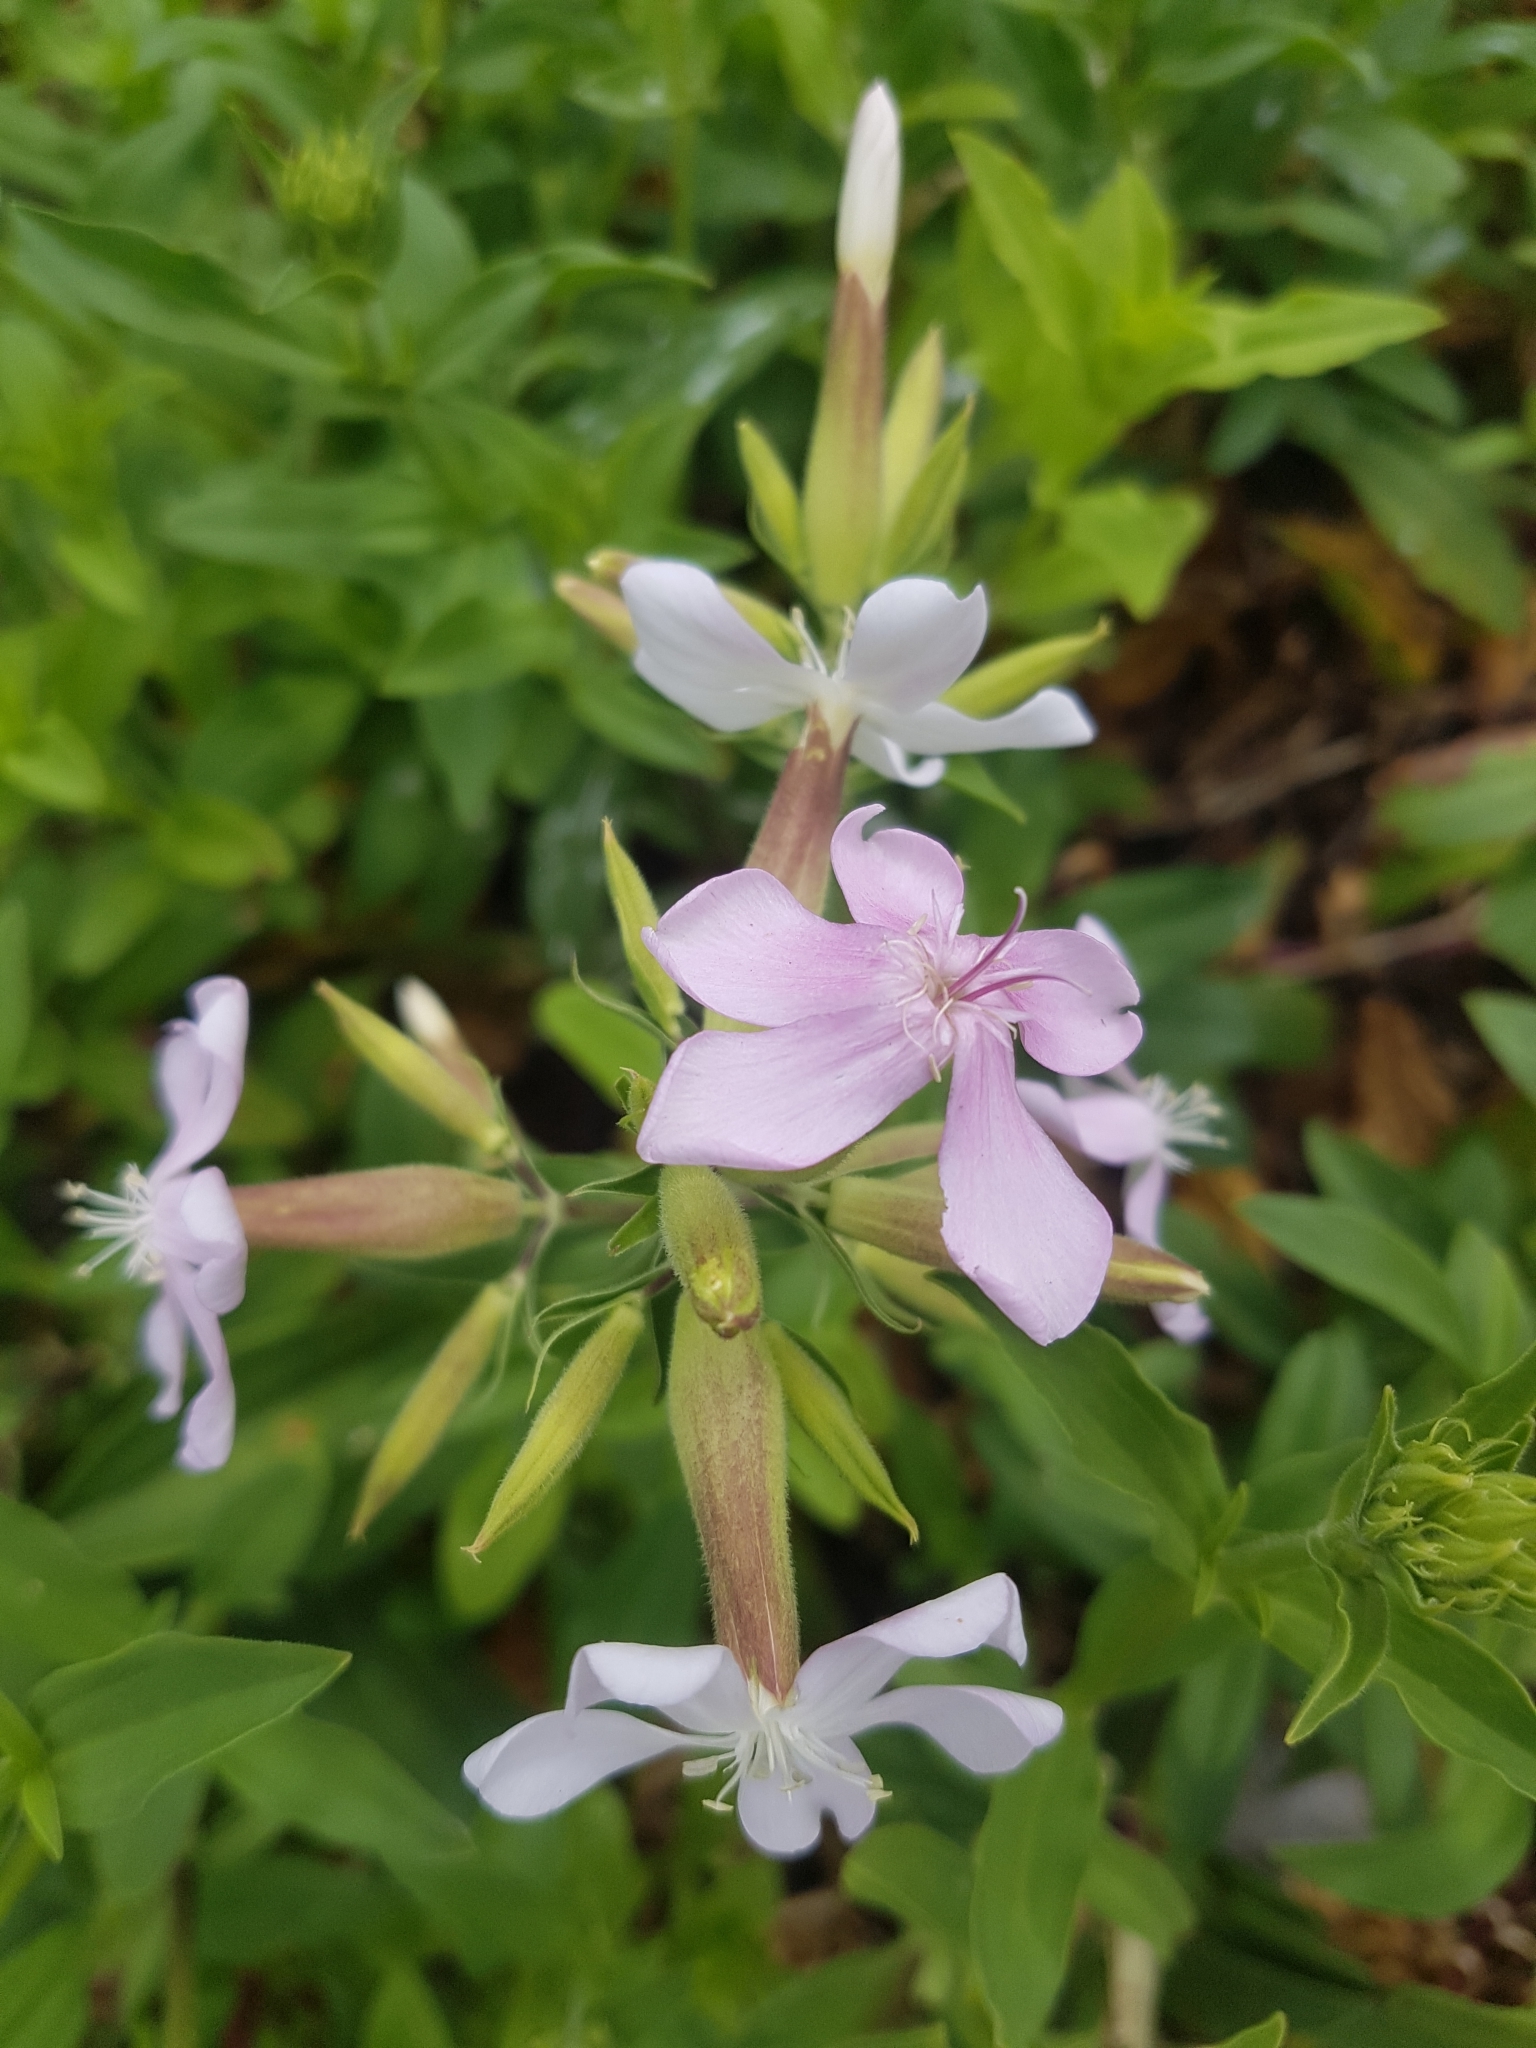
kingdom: Plantae
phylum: Tracheophyta
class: Magnoliopsida
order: Caryophyllales
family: Caryophyllaceae
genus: Saponaria
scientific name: Saponaria officinalis
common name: Soapwort
